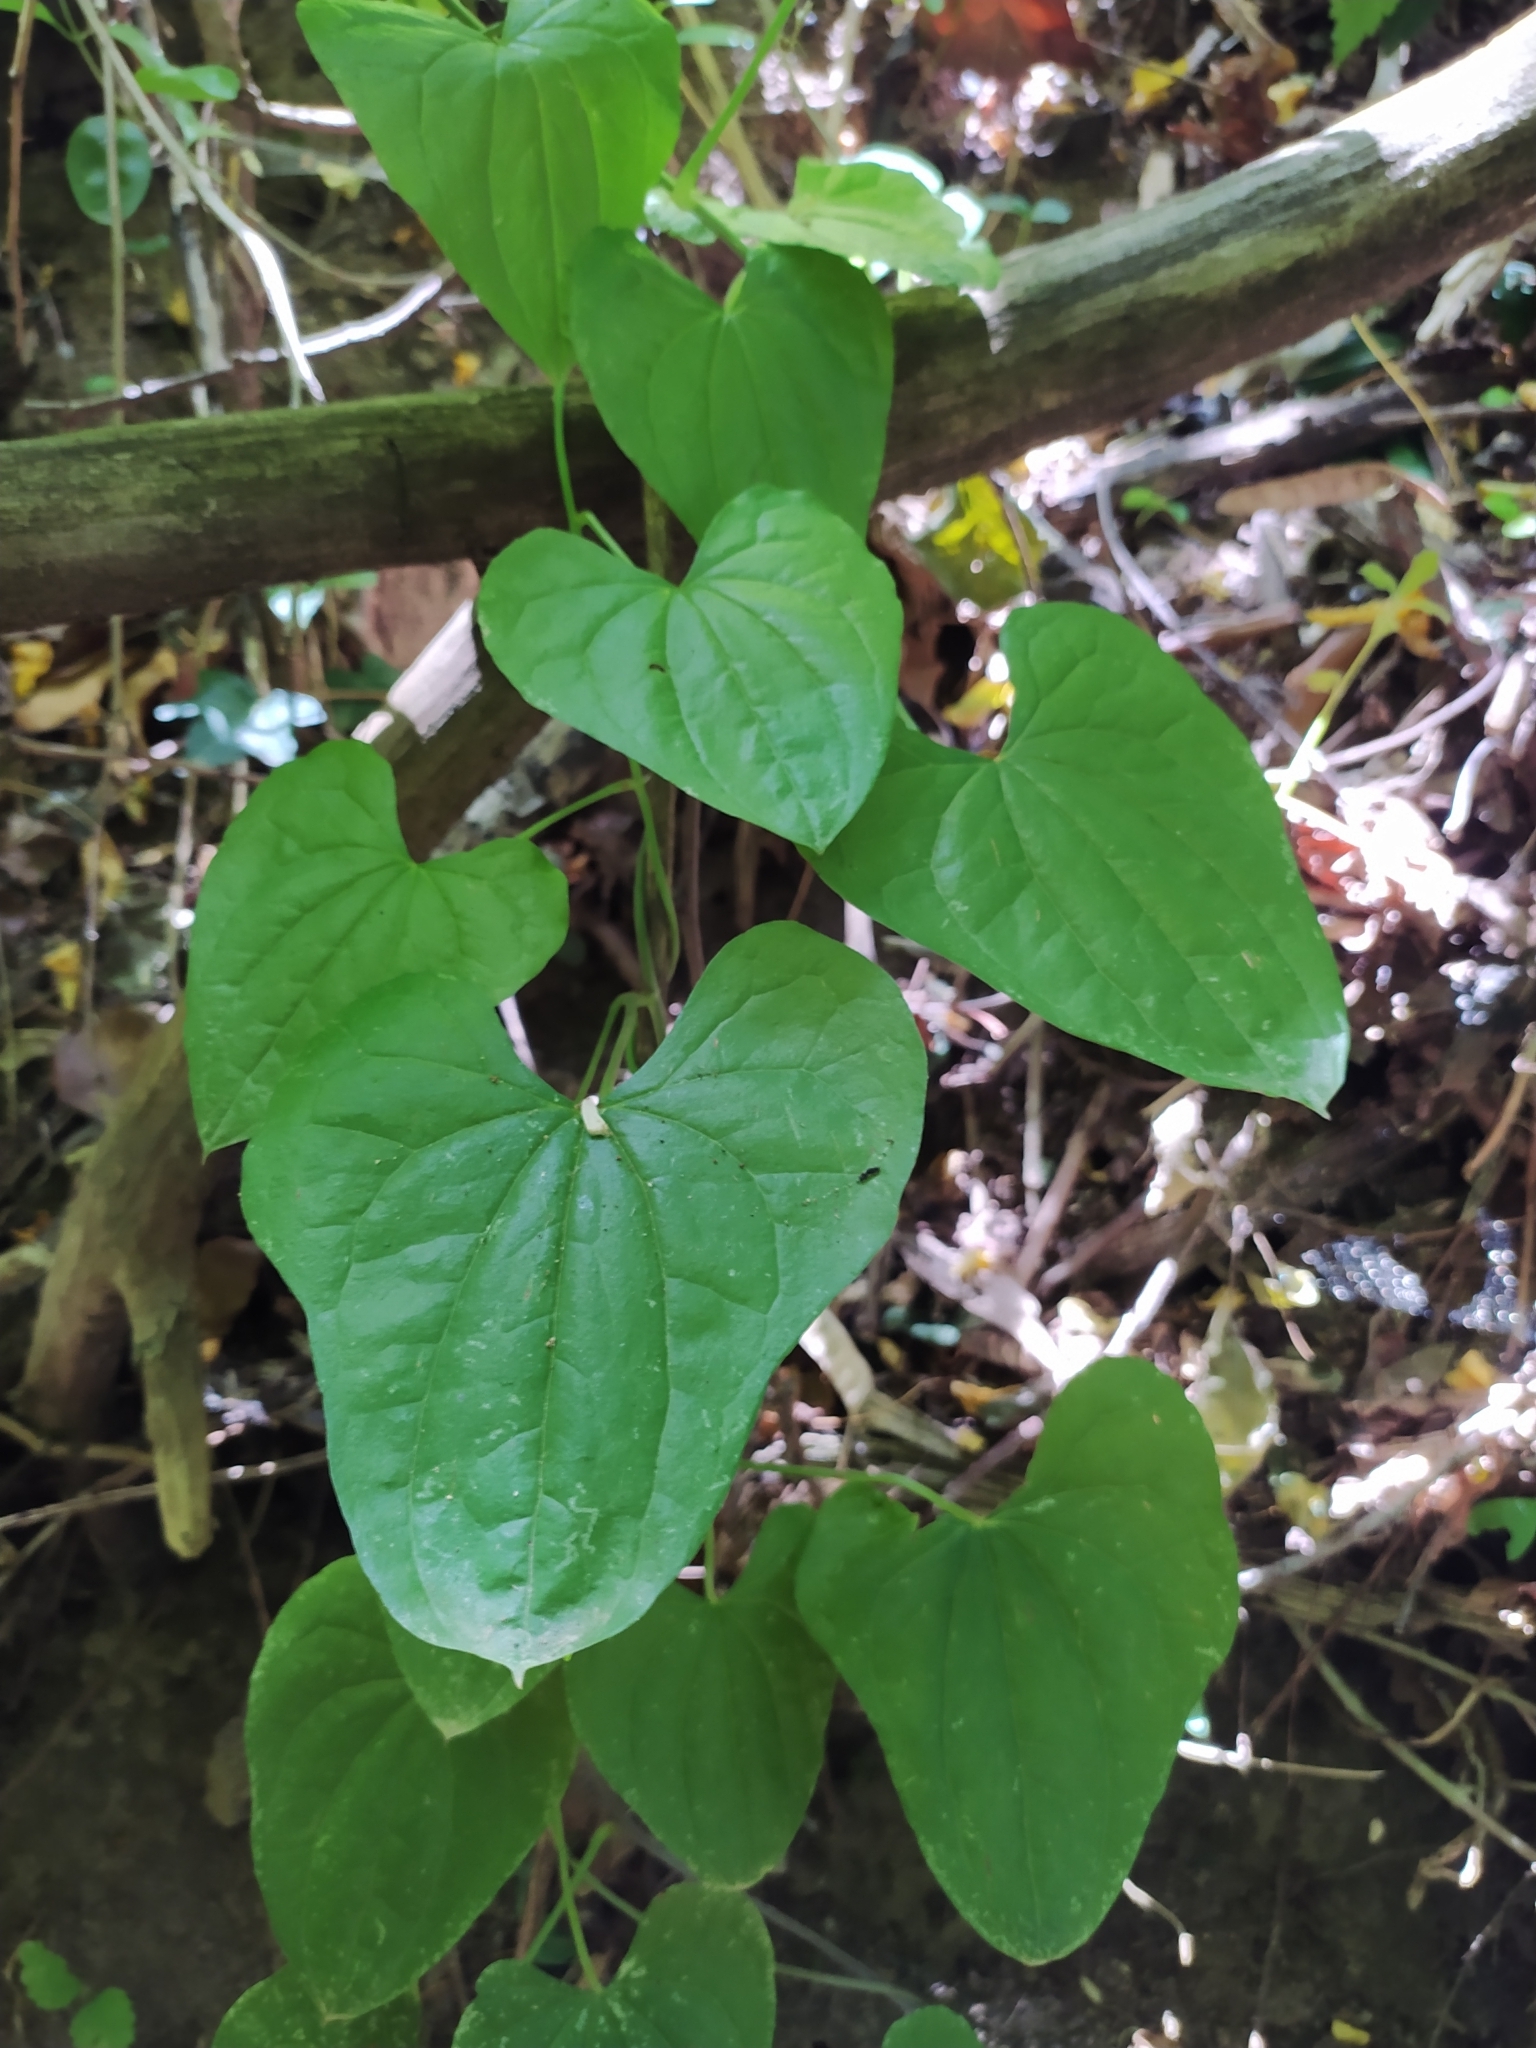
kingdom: Plantae
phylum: Tracheophyta
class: Liliopsida
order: Dioscoreales
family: Dioscoreaceae
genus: Dioscorea
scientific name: Dioscorea communis
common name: Black-bindweed
